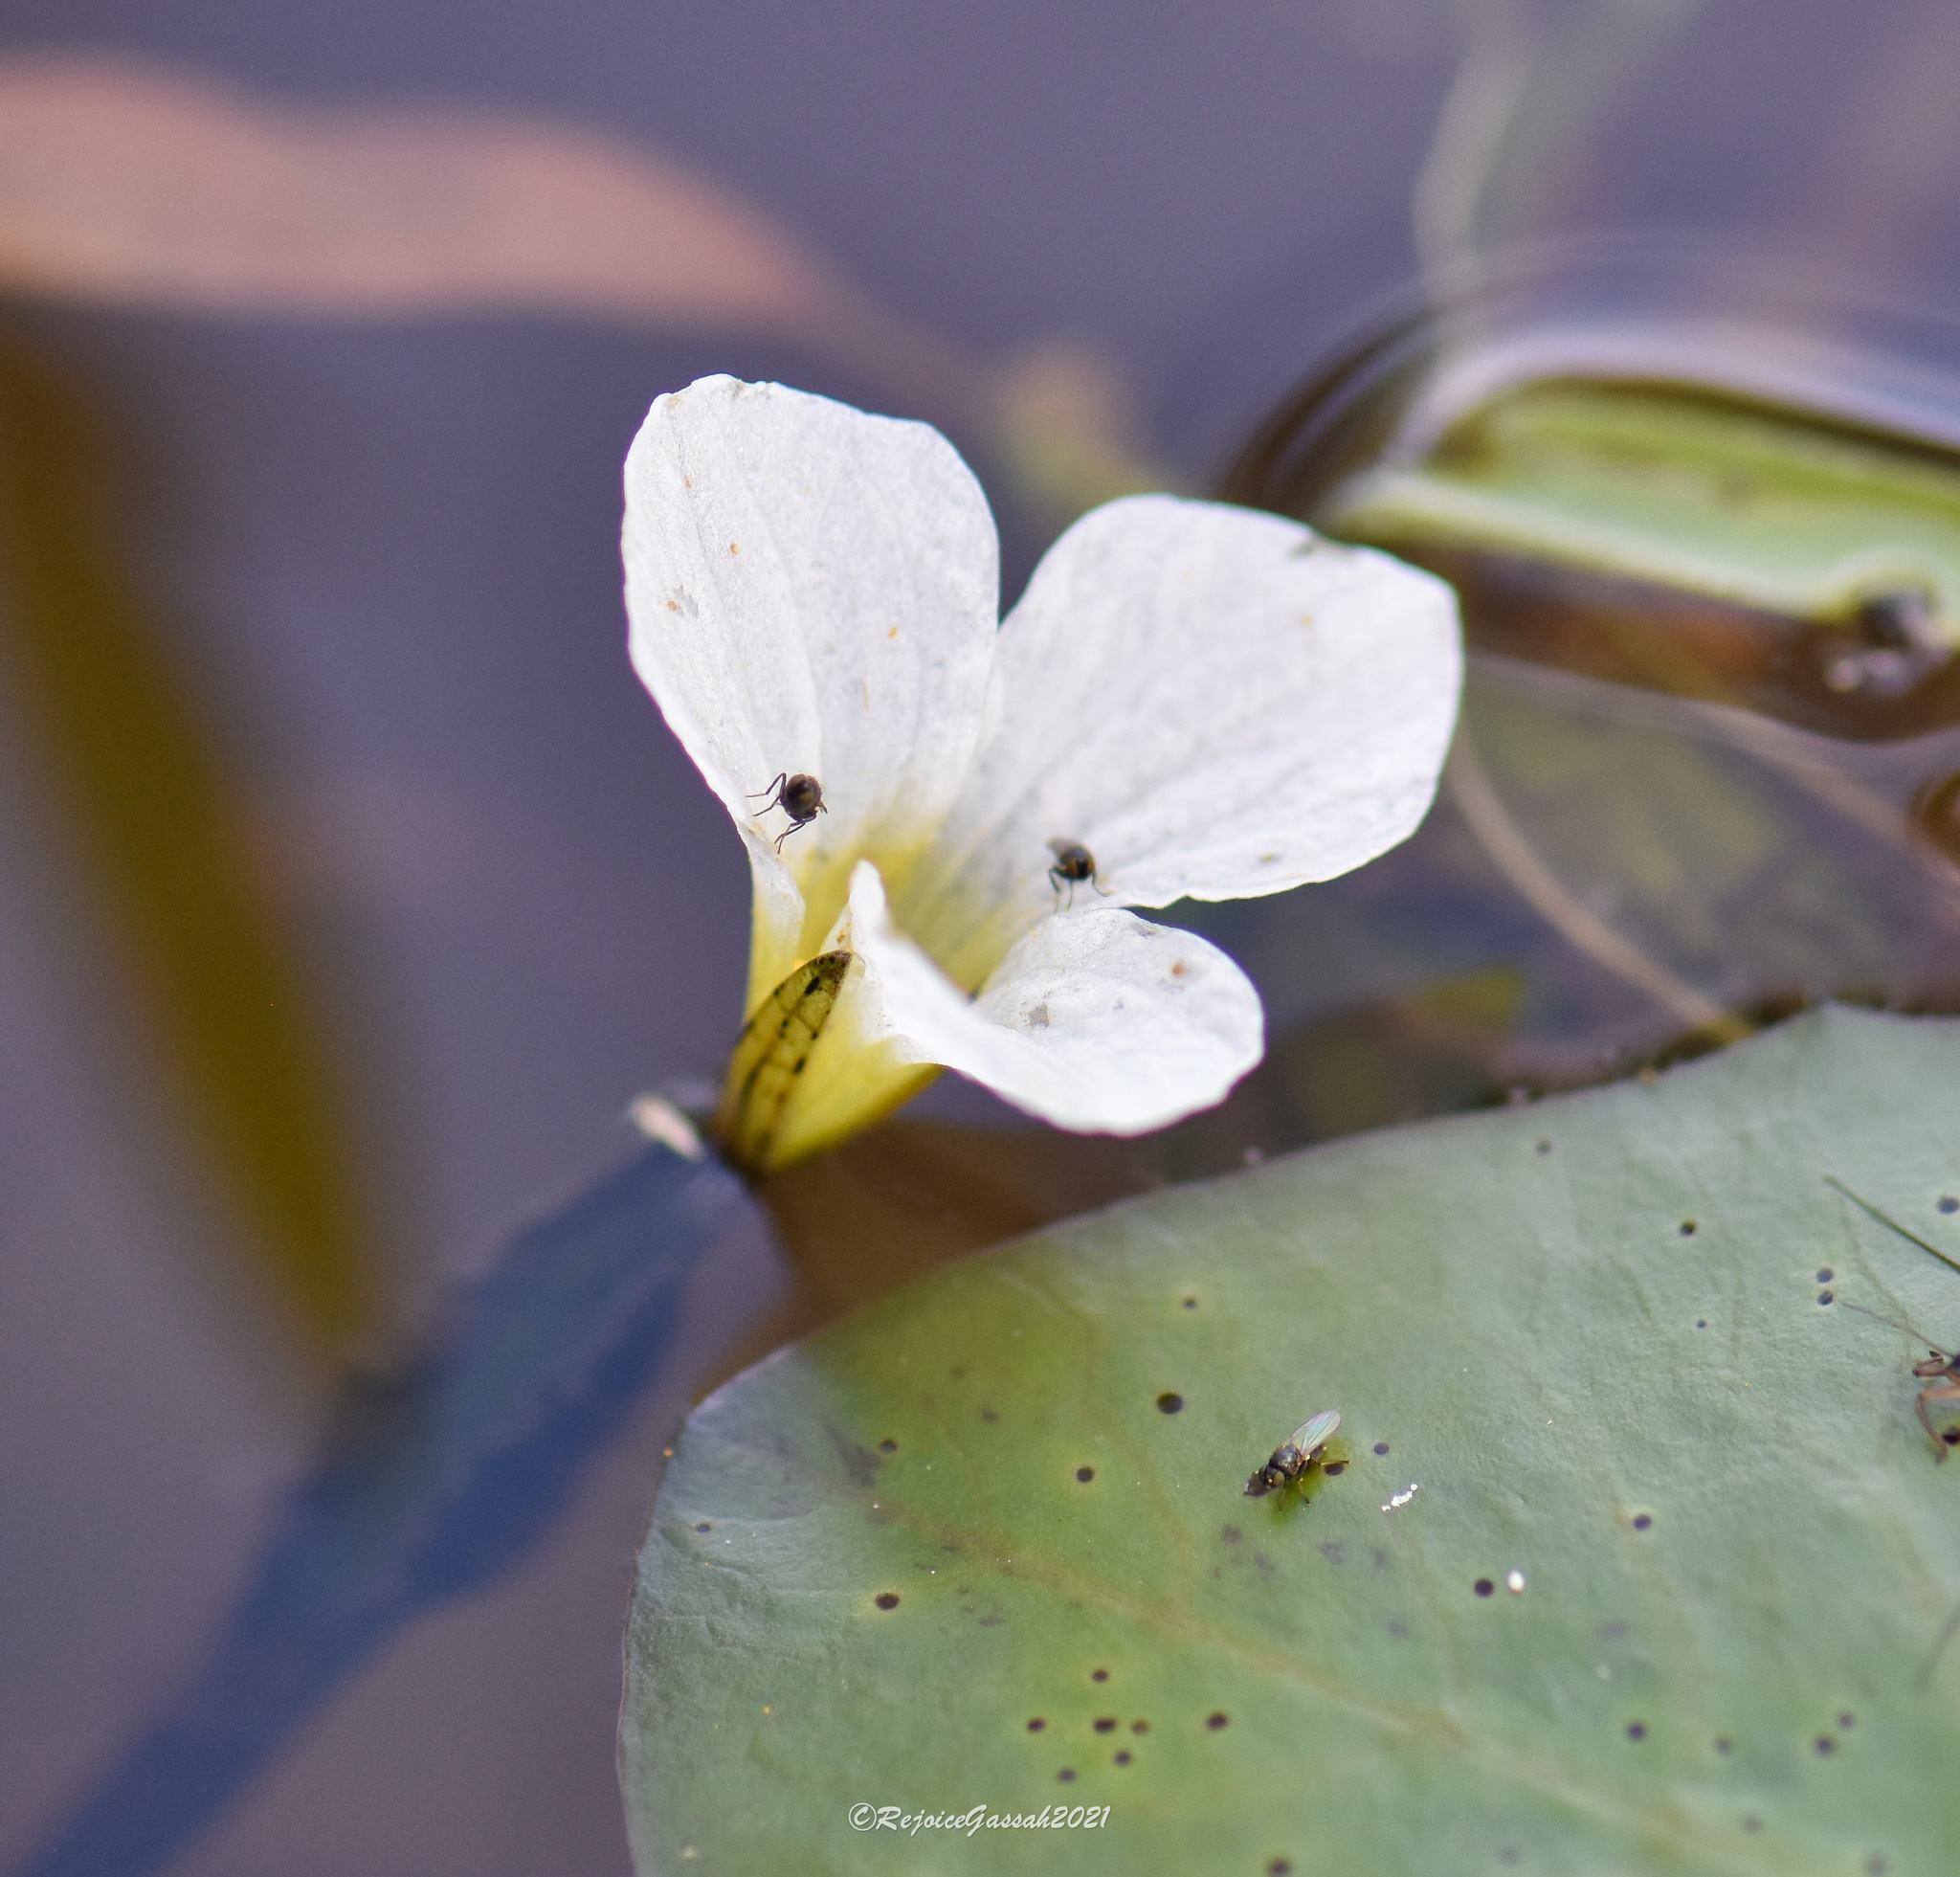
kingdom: Plantae
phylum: Tracheophyta
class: Liliopsida
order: Alismatales
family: Hydrocharitaceae
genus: Ottelia
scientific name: Ottelia alismoides
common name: Duck-lettuce
